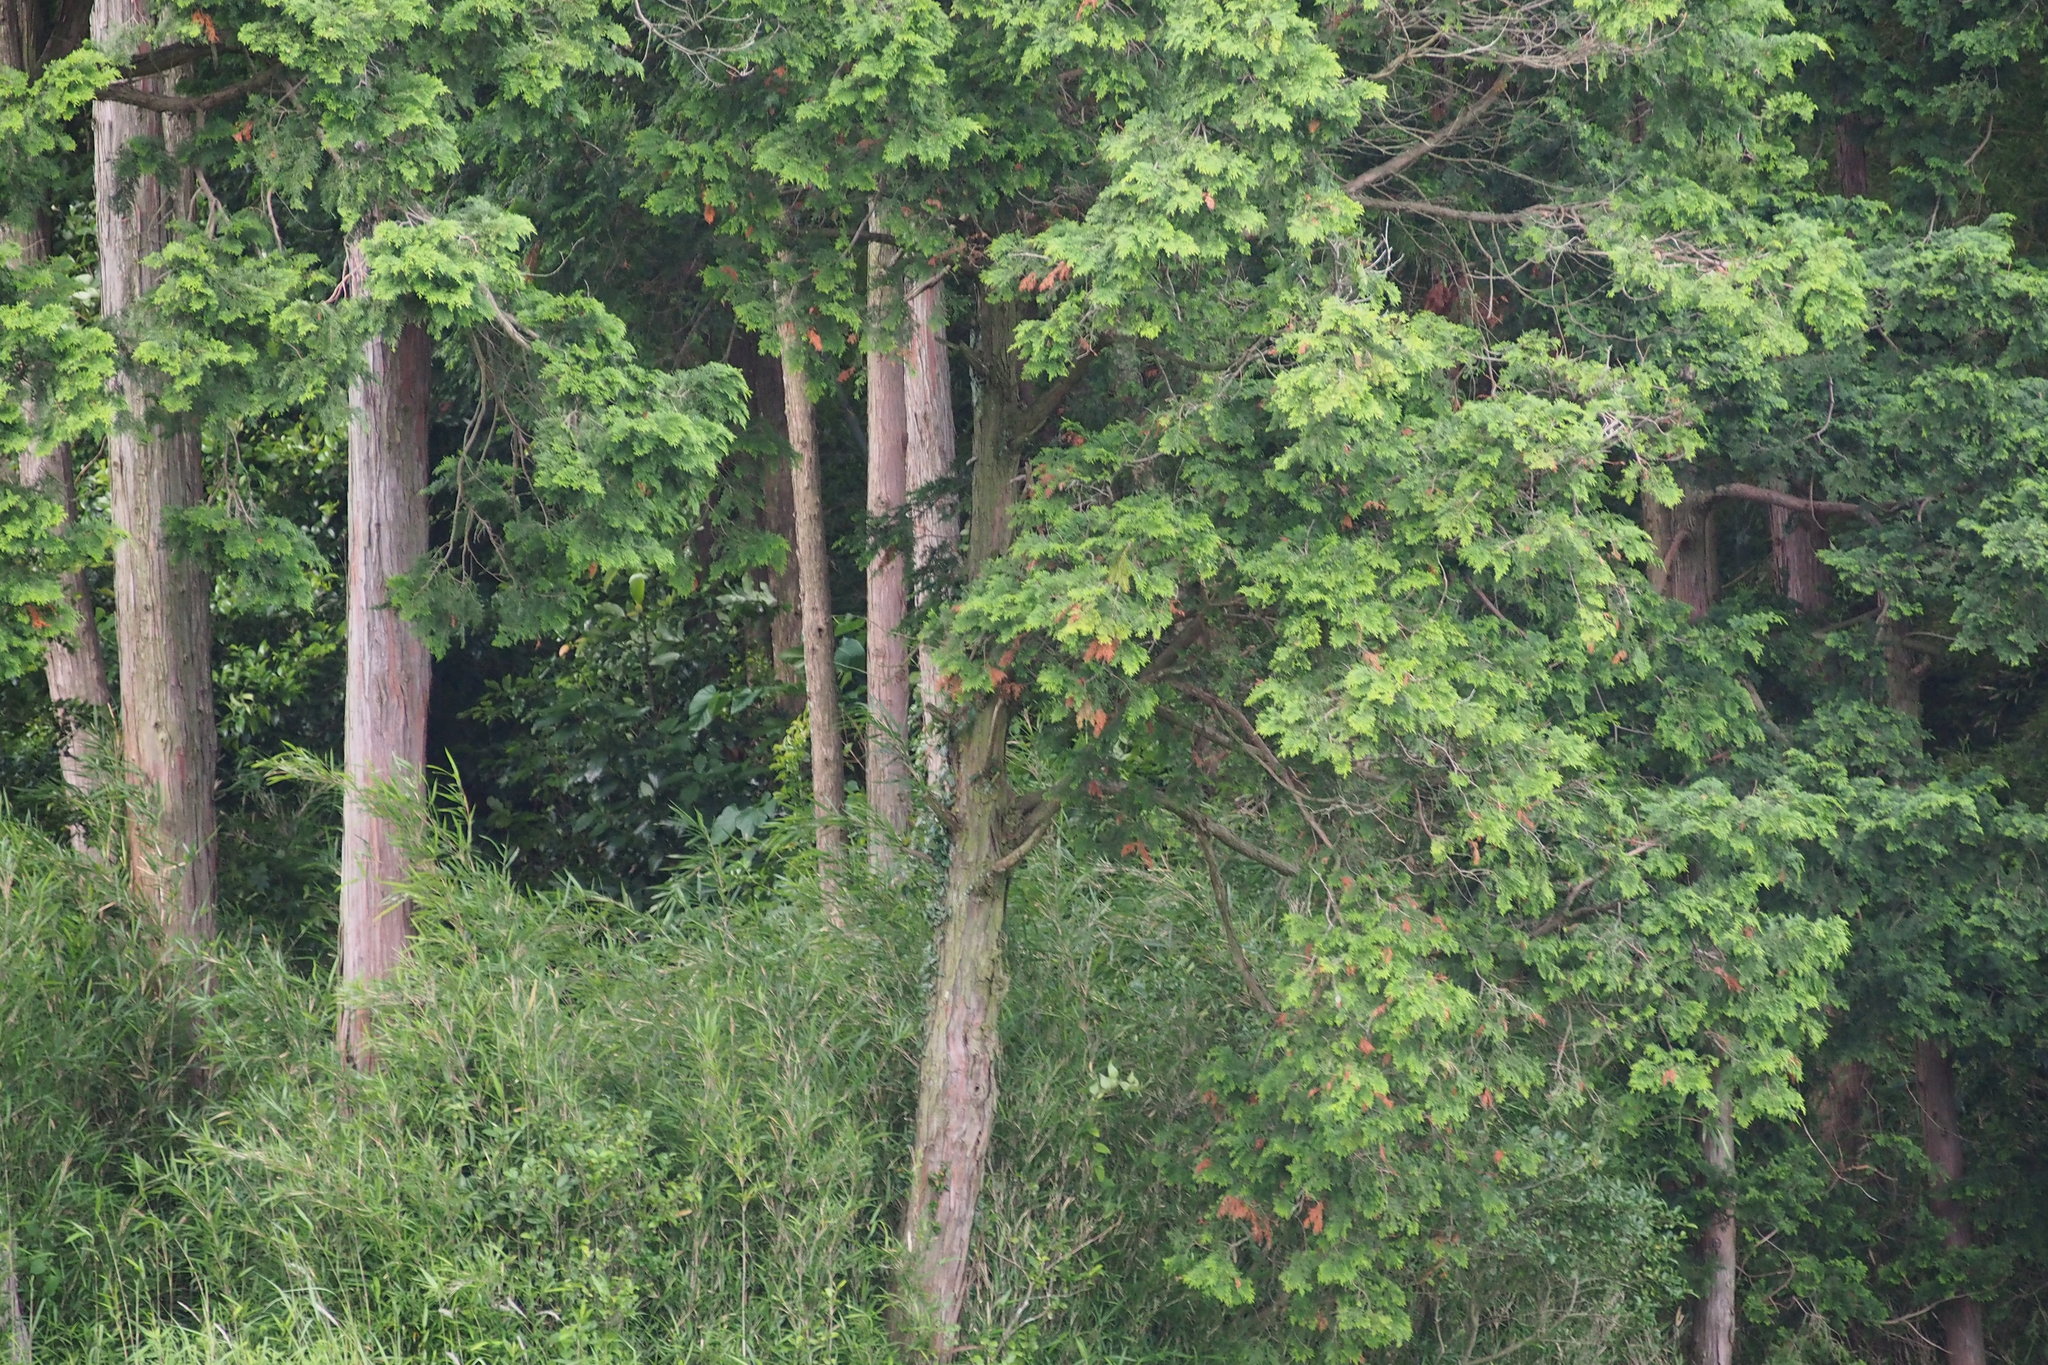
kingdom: Plantae
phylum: Tracheophyta
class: Pinopsida
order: Pinales
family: Cupressaceae
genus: Chamaecyparis
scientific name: Chamaecyparis obtusa
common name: Hinoki false cypress
